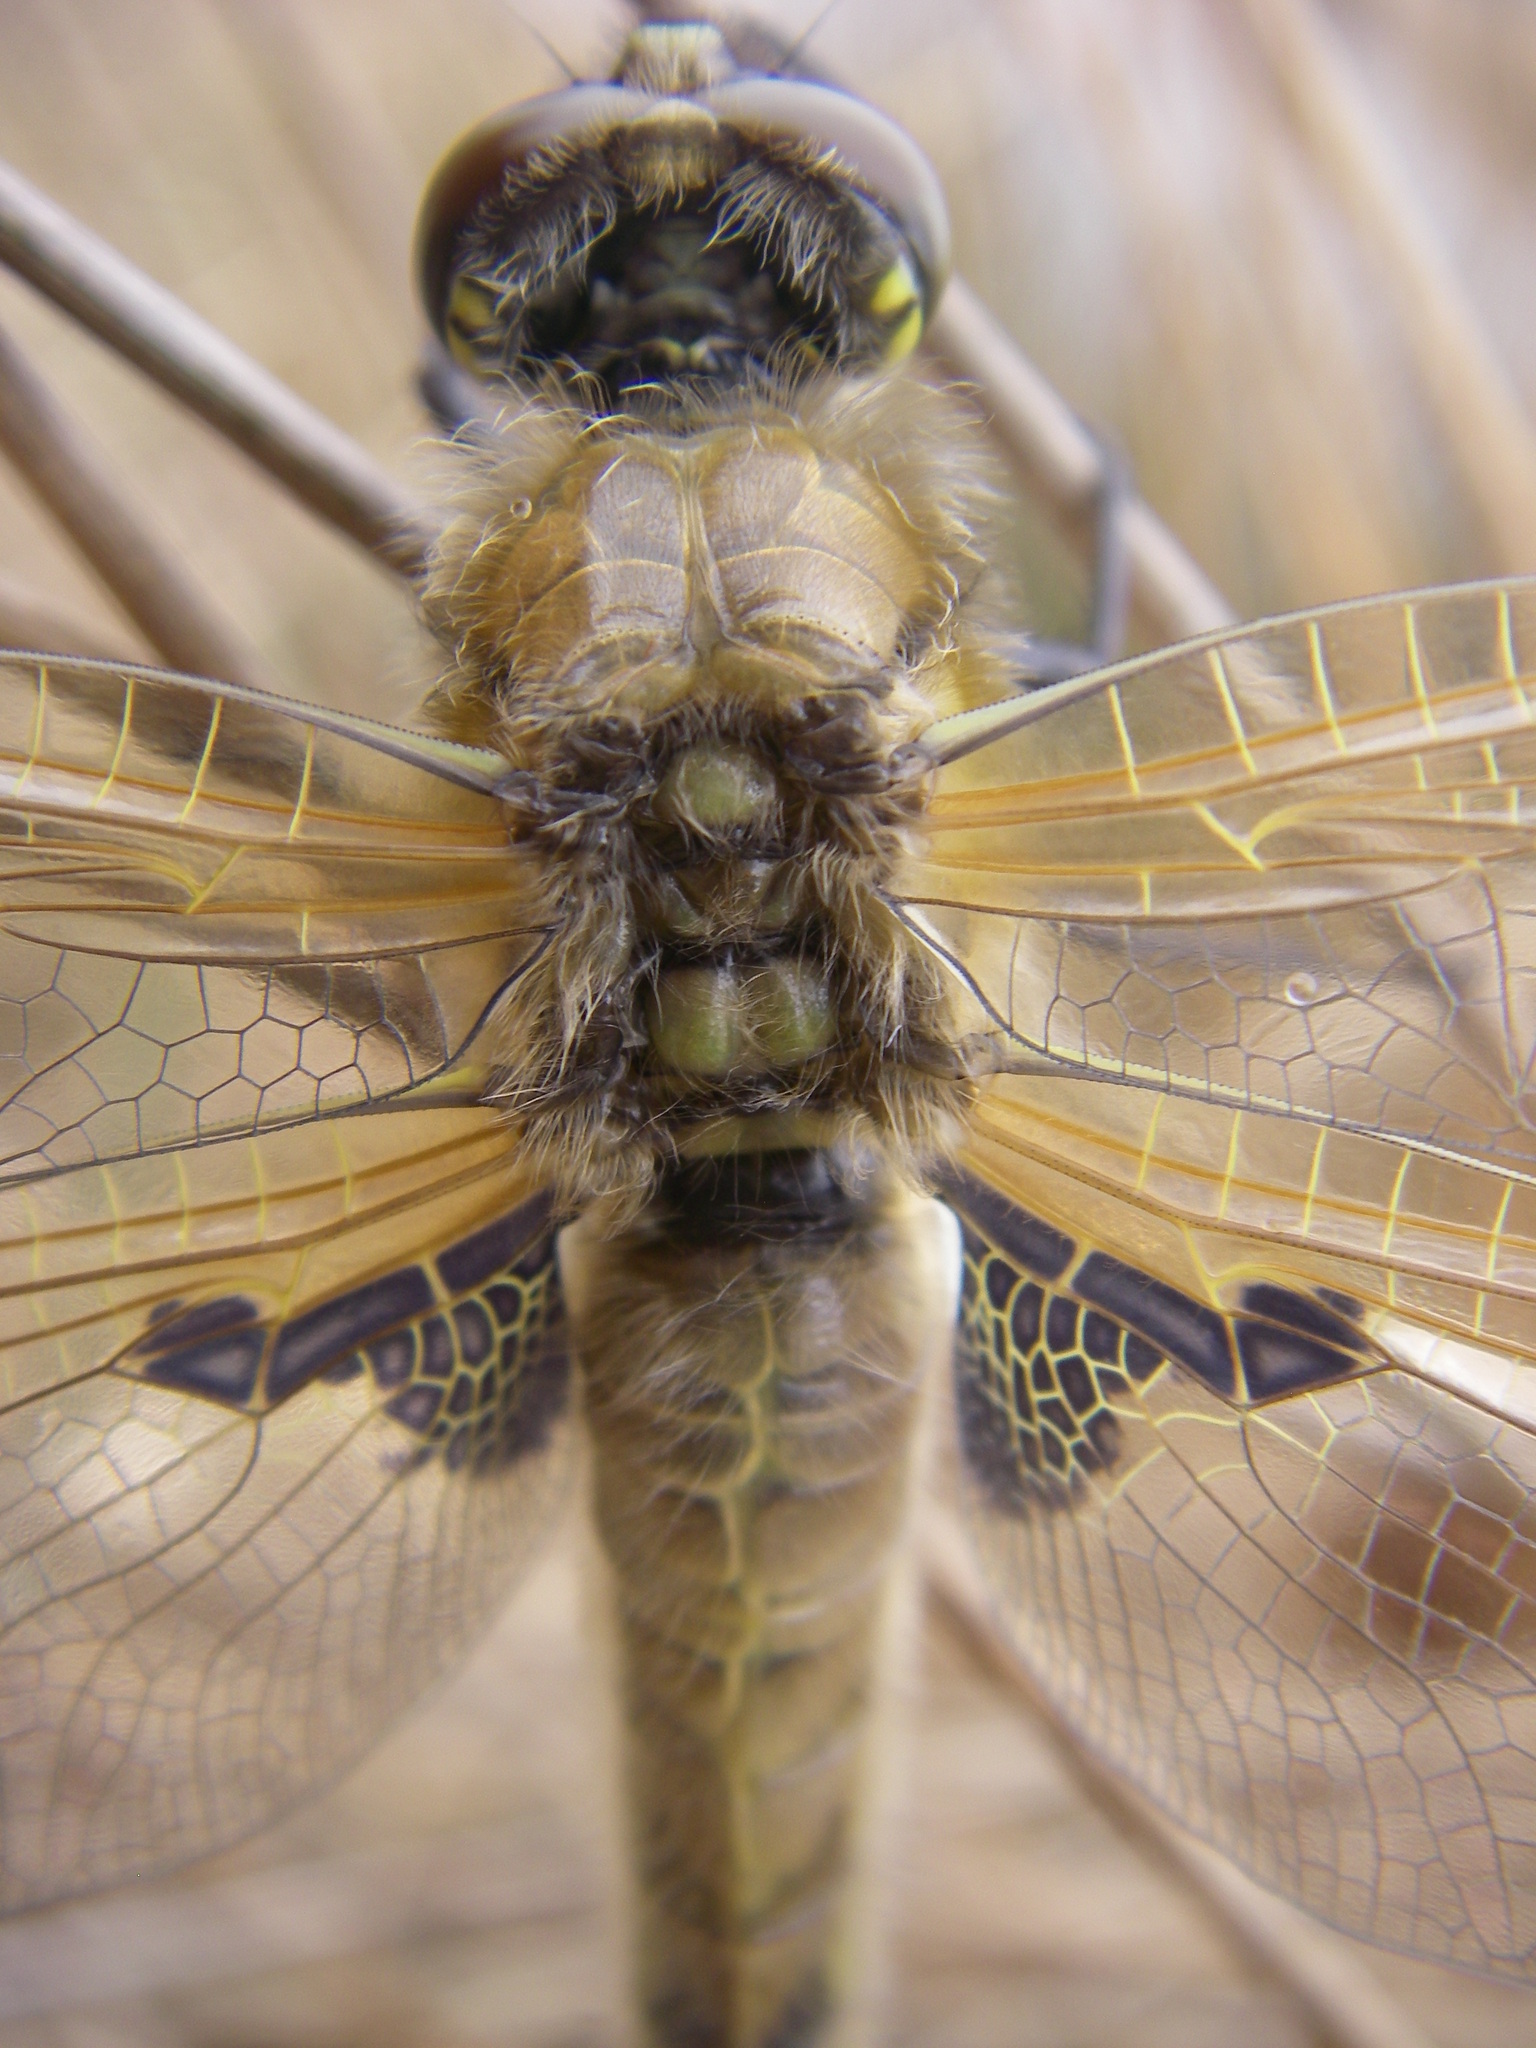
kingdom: Animalia
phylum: Arthropoda
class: Insecta
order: Odonata
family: Libellulidae
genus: Libellula
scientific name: Libellula quadrimaculata
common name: Four-spotted chaser
